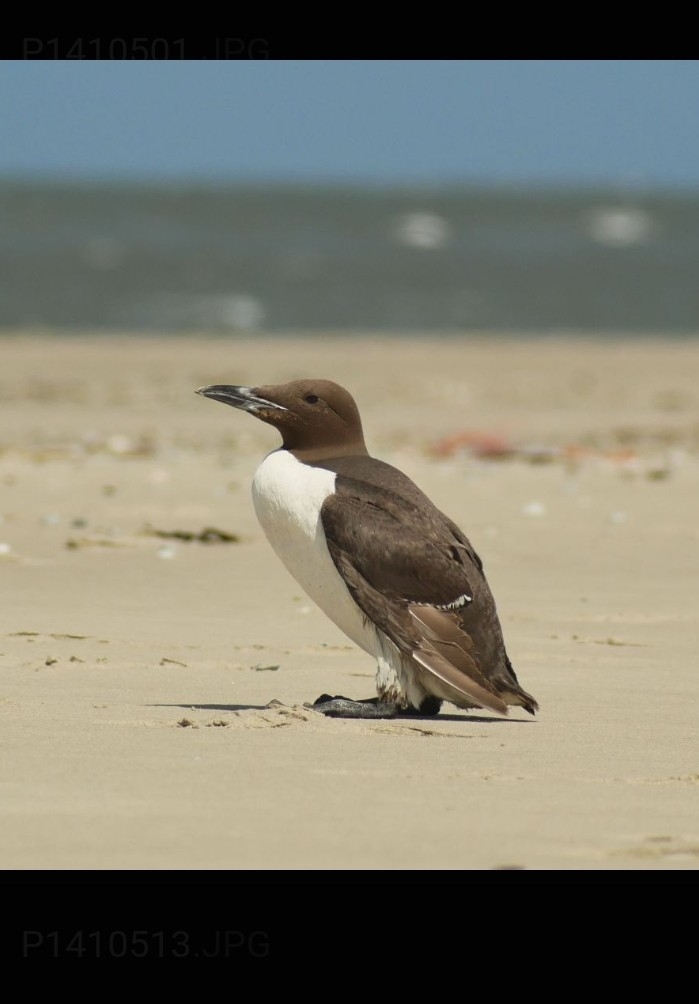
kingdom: Animalia
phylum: Chordata
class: Aves
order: Charadriiformes
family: Alcidae
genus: Uria
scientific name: Uria aalge
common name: Common murre
